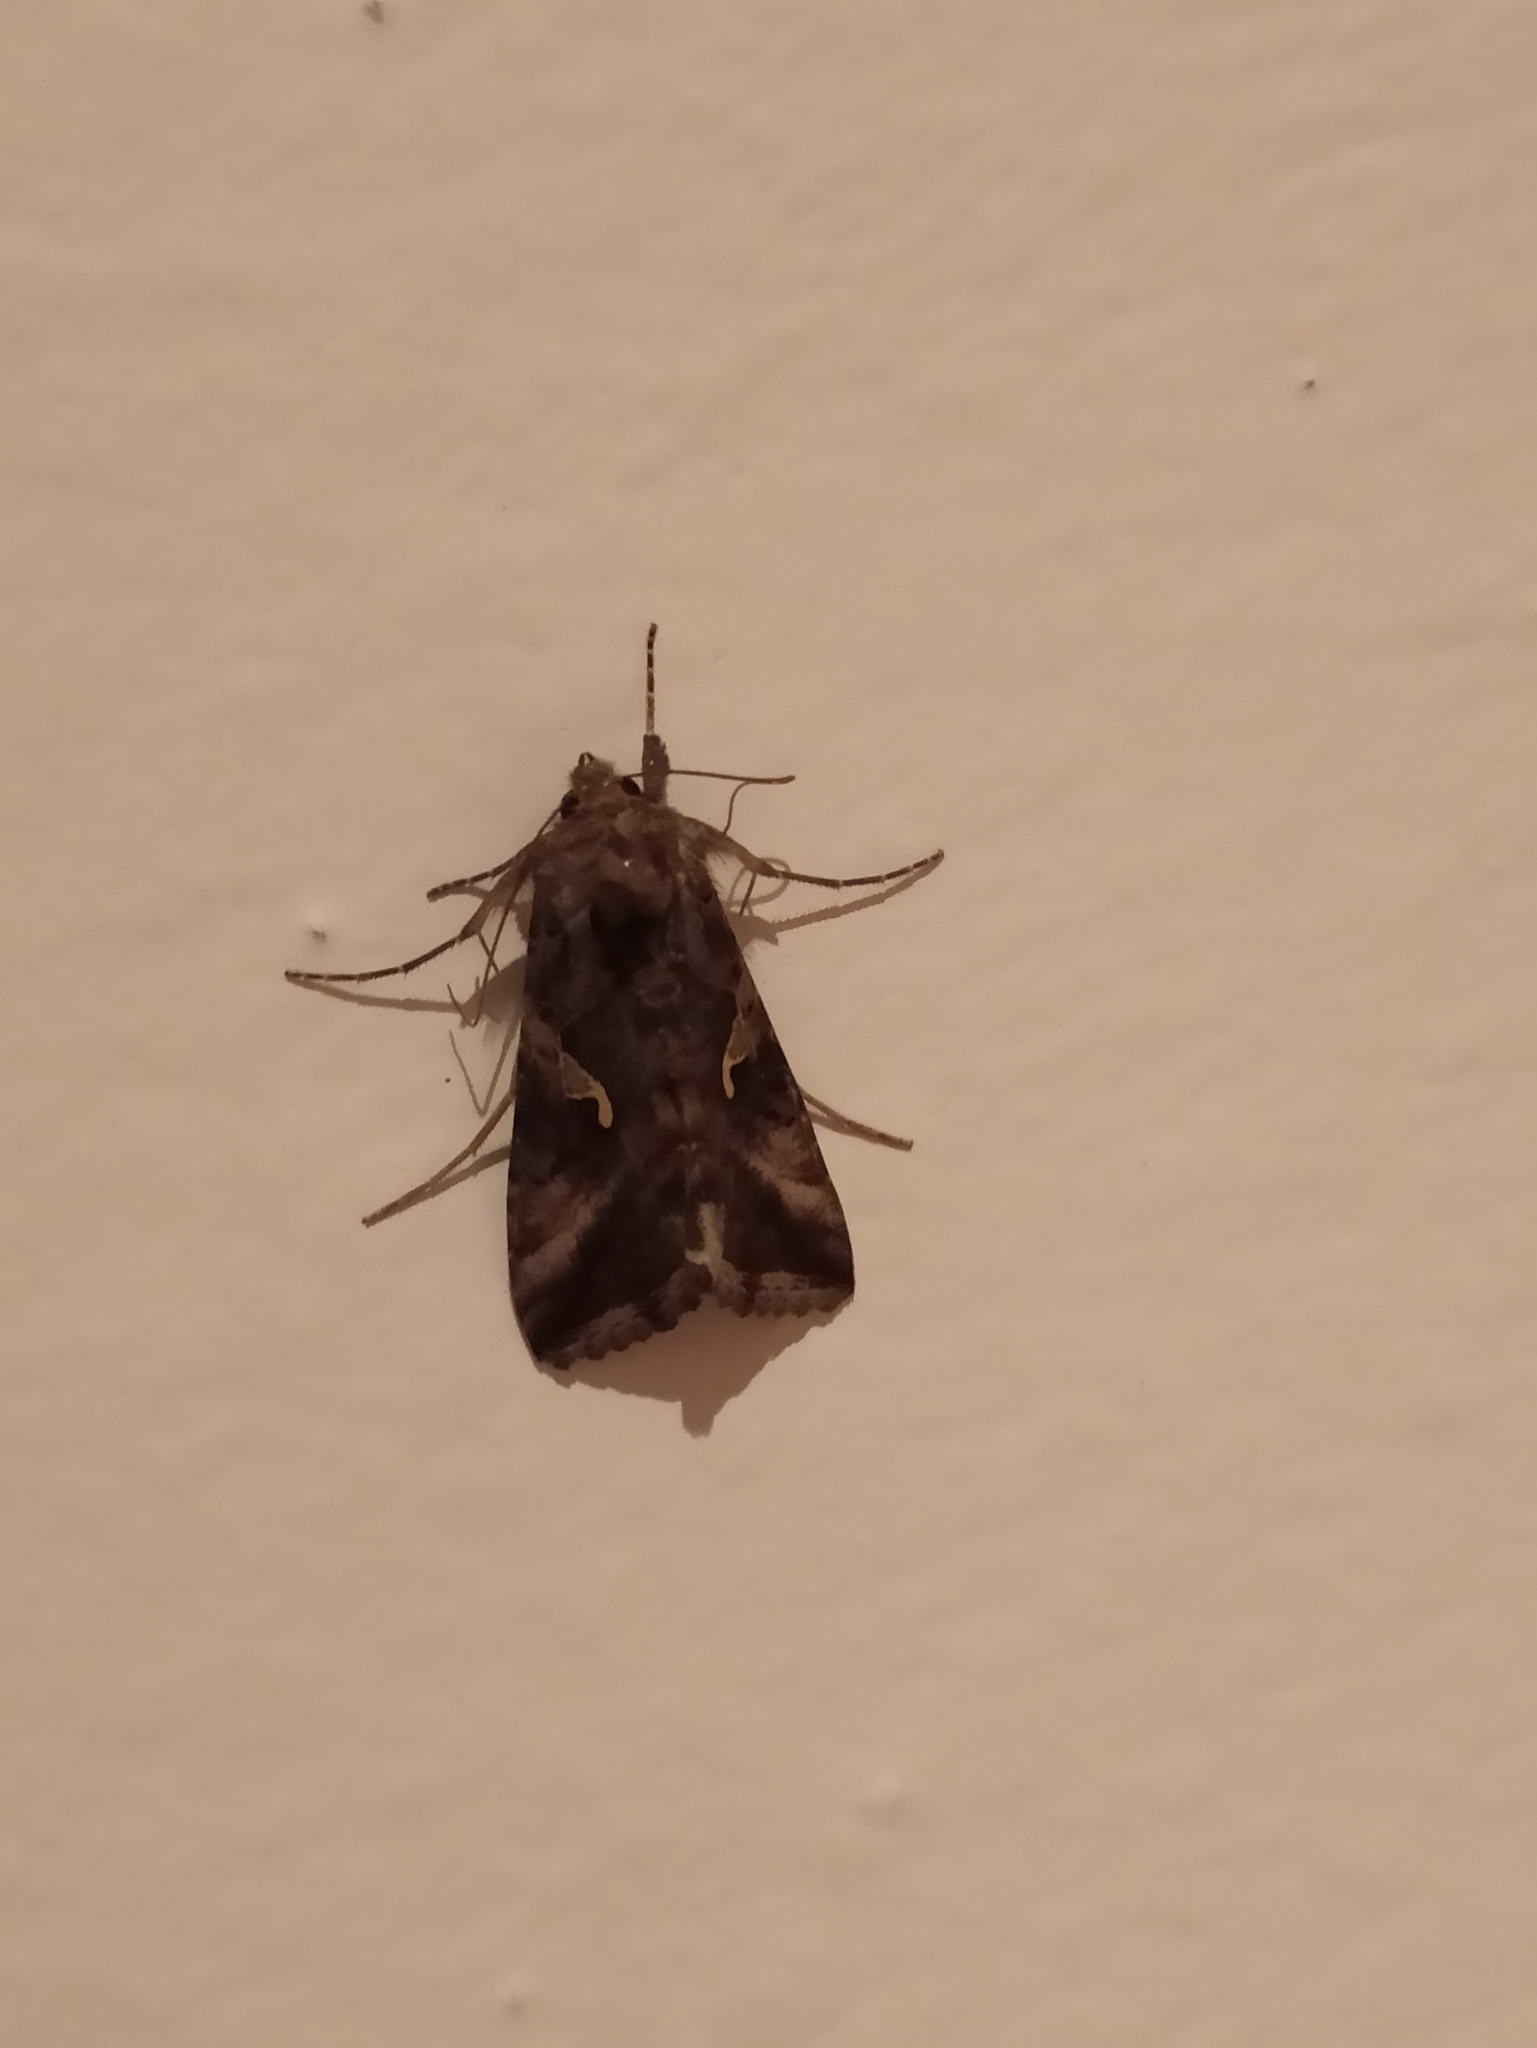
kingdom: Animalia
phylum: Arthropoda
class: Insecta
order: Lepidoptera
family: Noctuidae
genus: Autographa
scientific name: Autographa gamma
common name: Silver y
